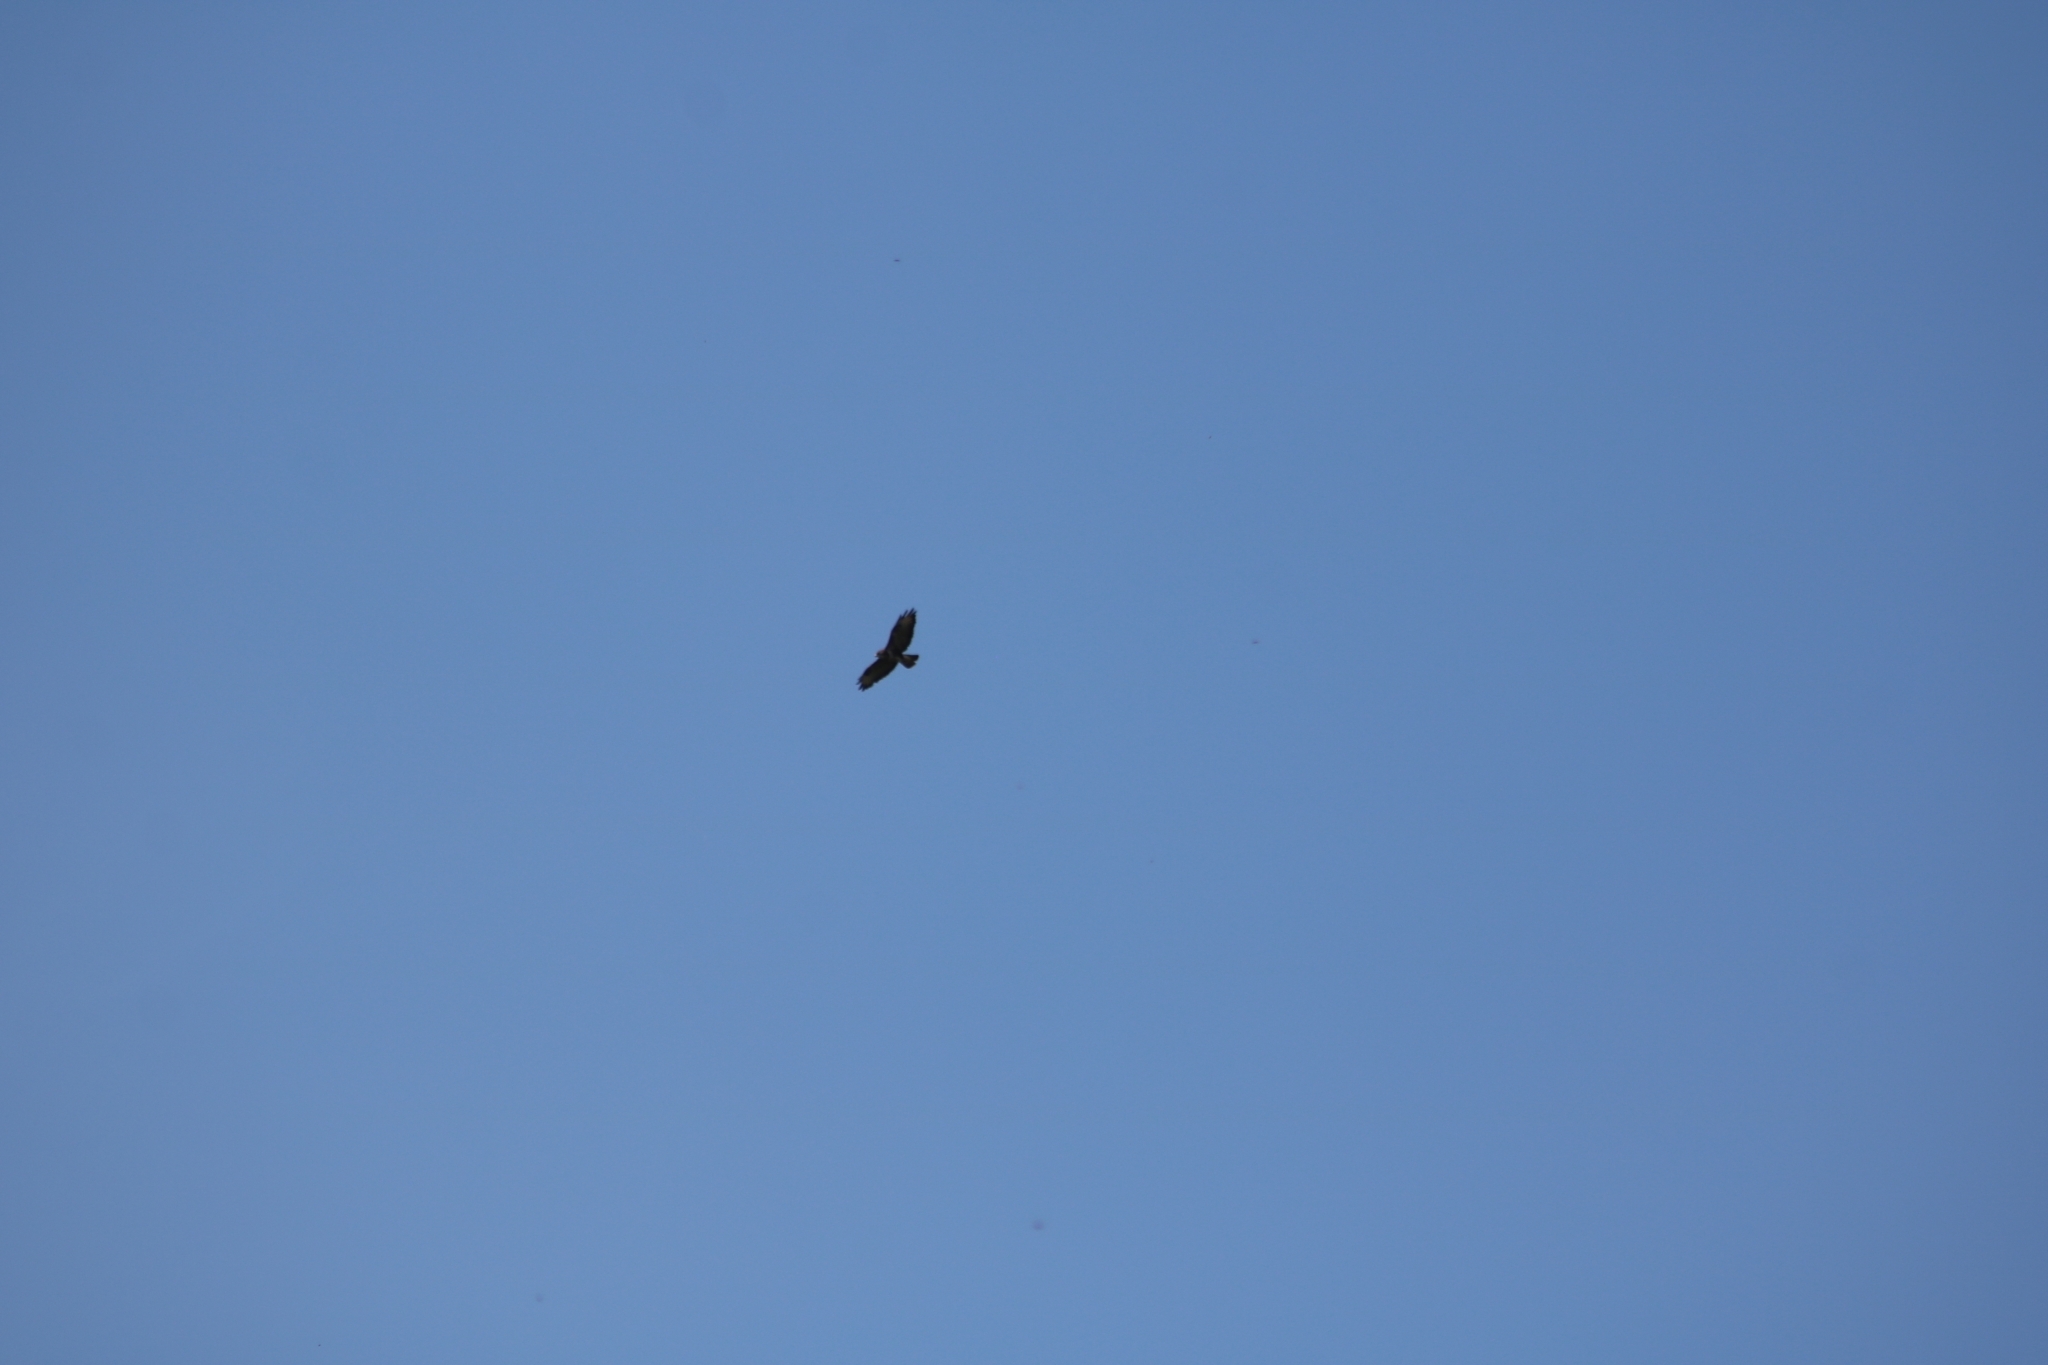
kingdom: Animalia
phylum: Chordata
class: Aves
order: Accipitriformes
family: Accipitridae
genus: Buteo
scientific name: Buteo buteo
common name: Common buzzard
